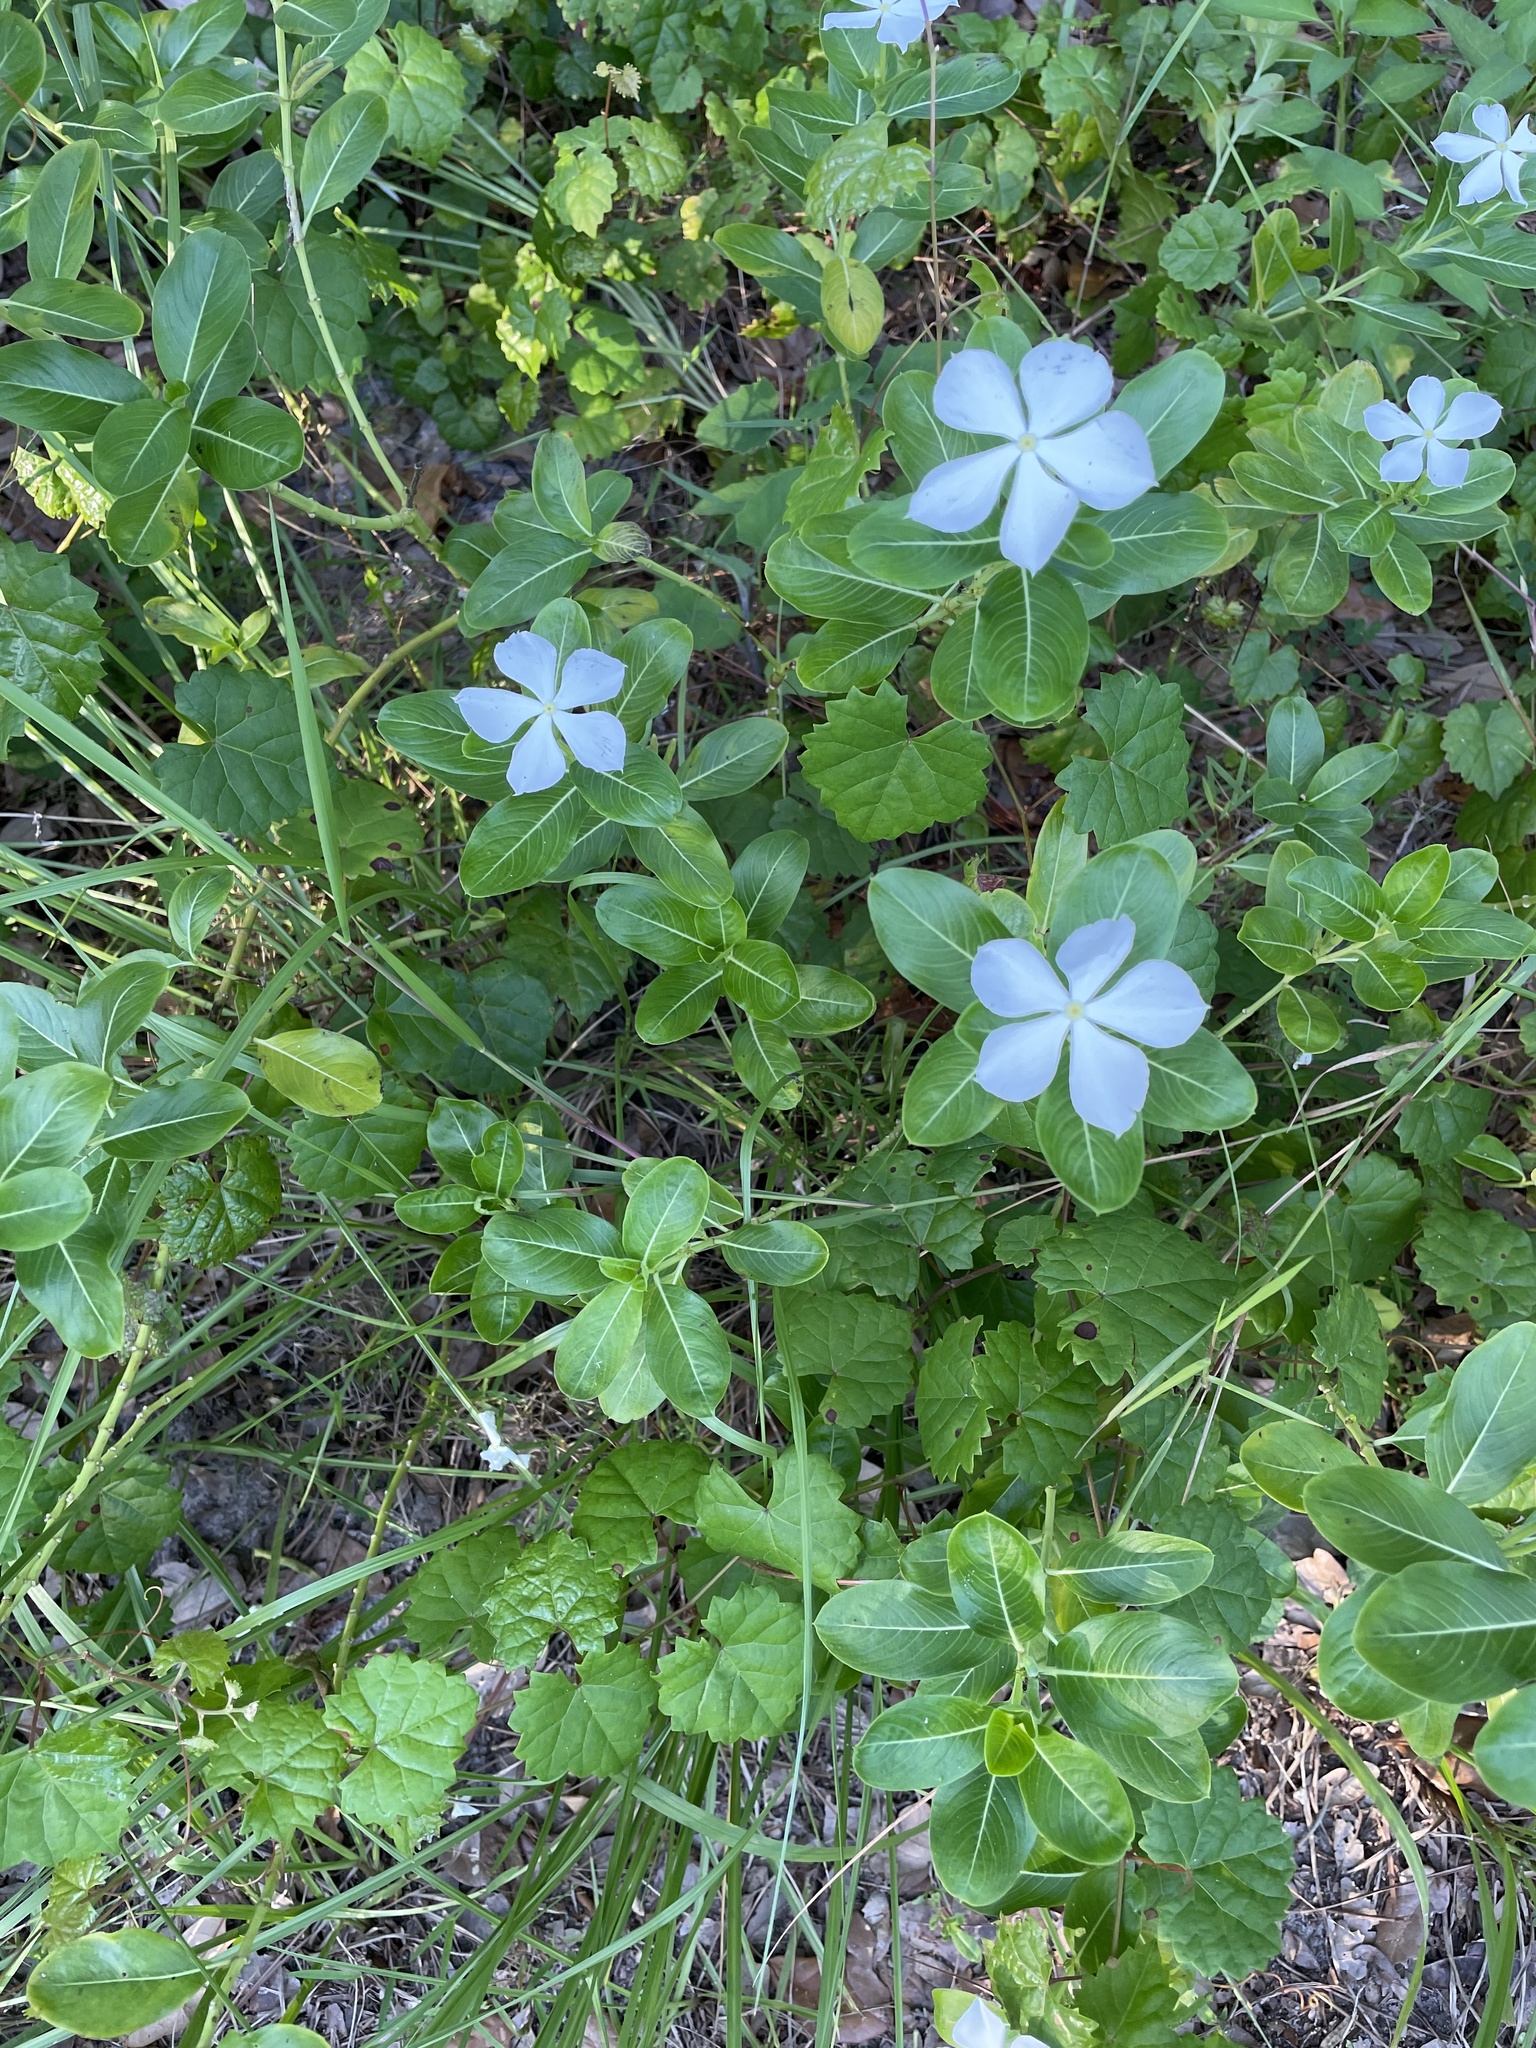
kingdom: Plantae
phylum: Tracheophyta
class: Magnoliopsida
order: Gentianales
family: Apocynaceae
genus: Catharanthus
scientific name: Catharanthus roseus
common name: Madagascar periwinkle
